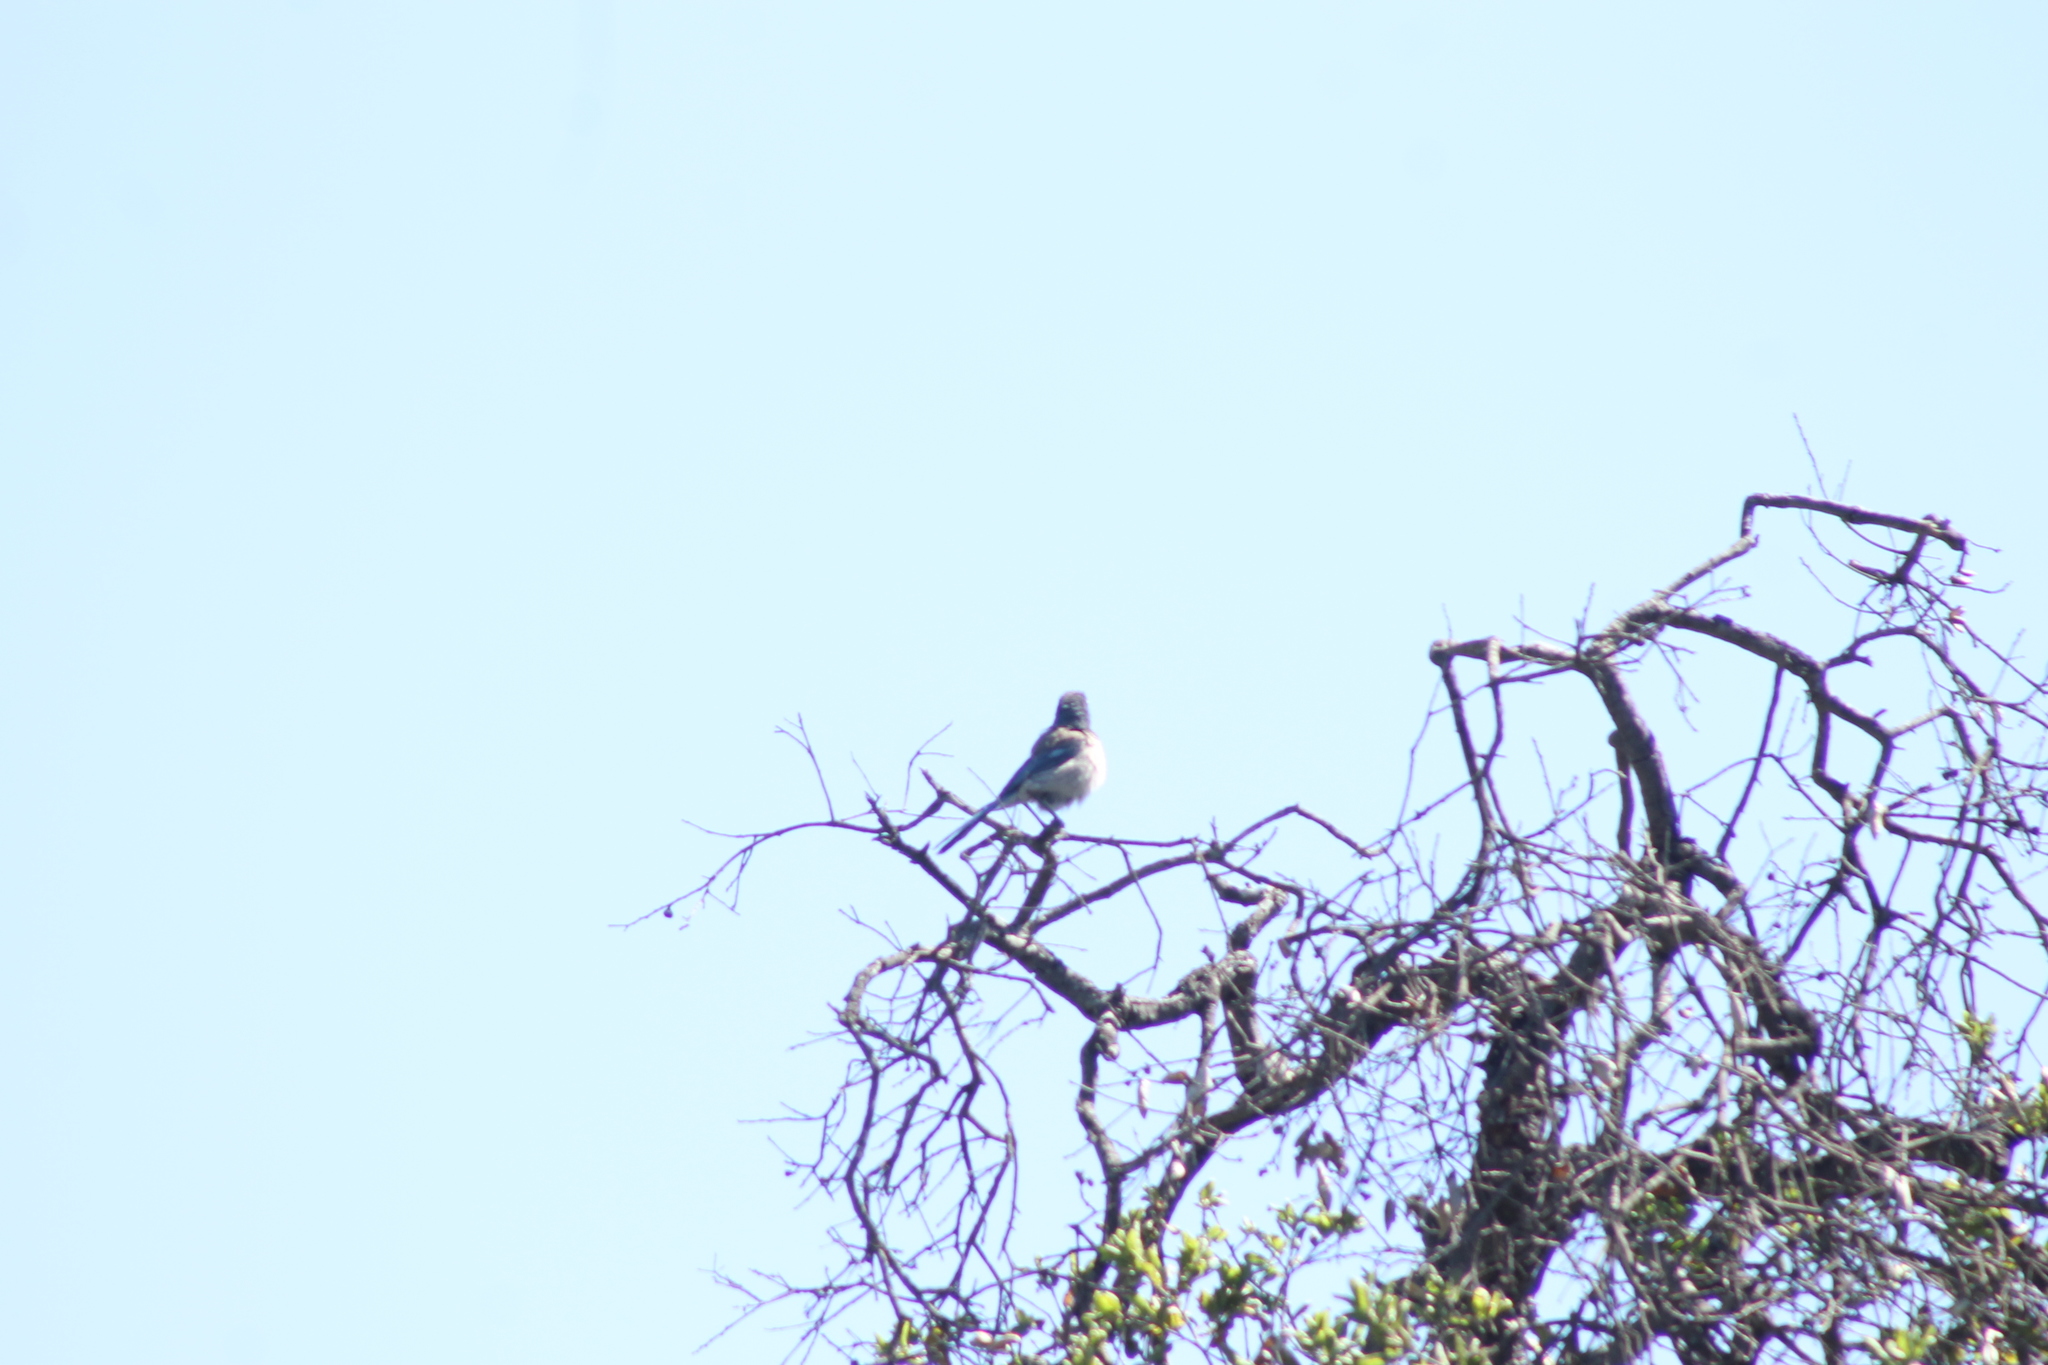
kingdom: Animalia
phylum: Chordata
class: Aves
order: Passeriformes
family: Corvidae
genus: Aphelocoma
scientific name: Aphelocoma californica
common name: California scrub-jay
